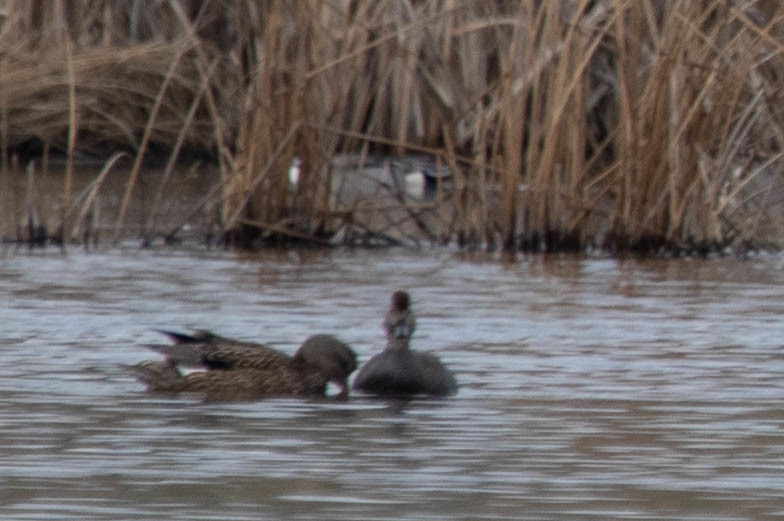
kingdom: Animalia
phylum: Chordata
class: Aves
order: Anseriformes
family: Anatidae
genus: Mareca
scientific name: Mareca strepera
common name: Gadwall
